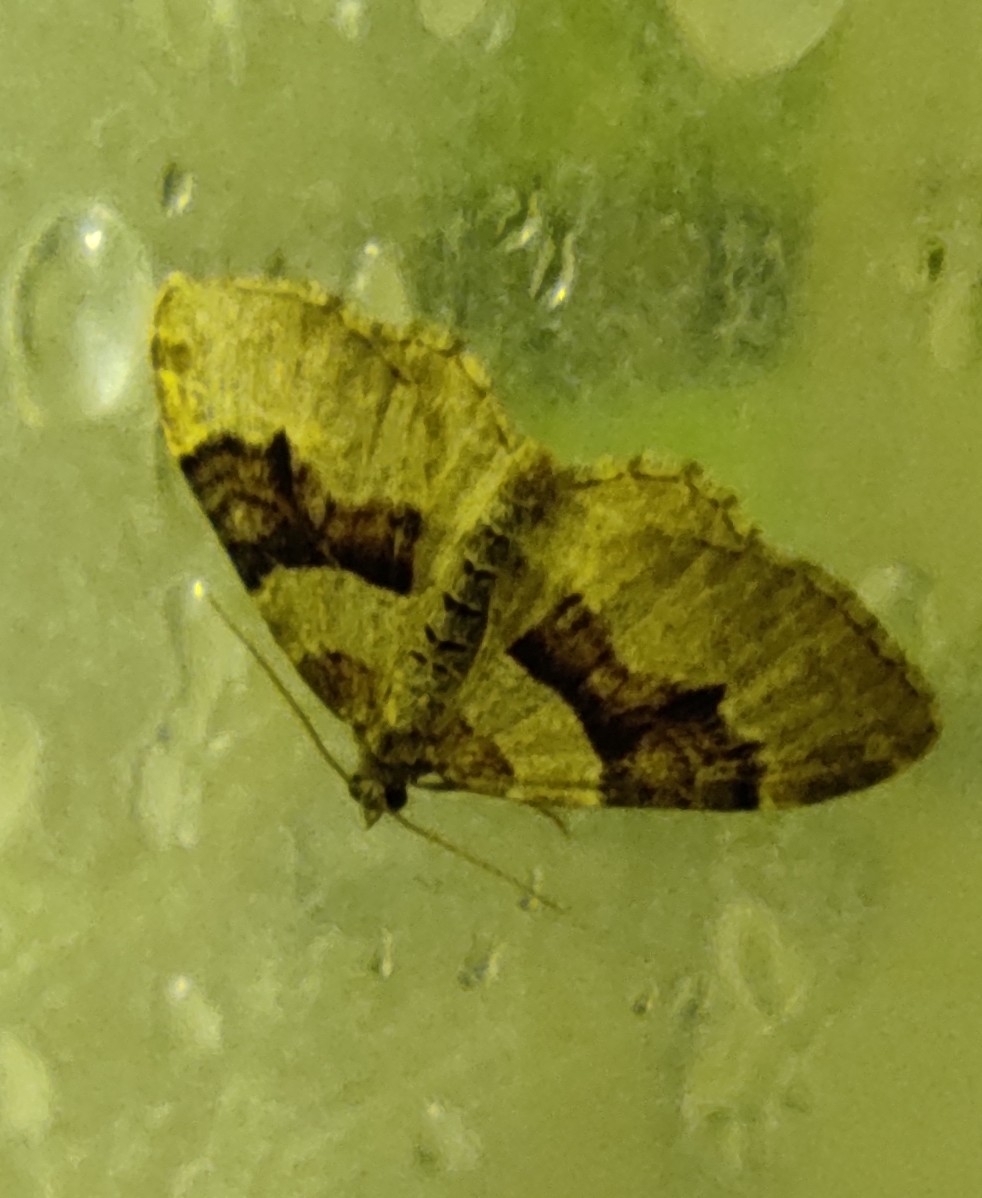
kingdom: Animalia
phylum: Arthropoda
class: Insecta
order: Lepidoptera
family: Geometridae
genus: Xanthorhoe
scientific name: Xanthorhoe designata
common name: Flame carpet
